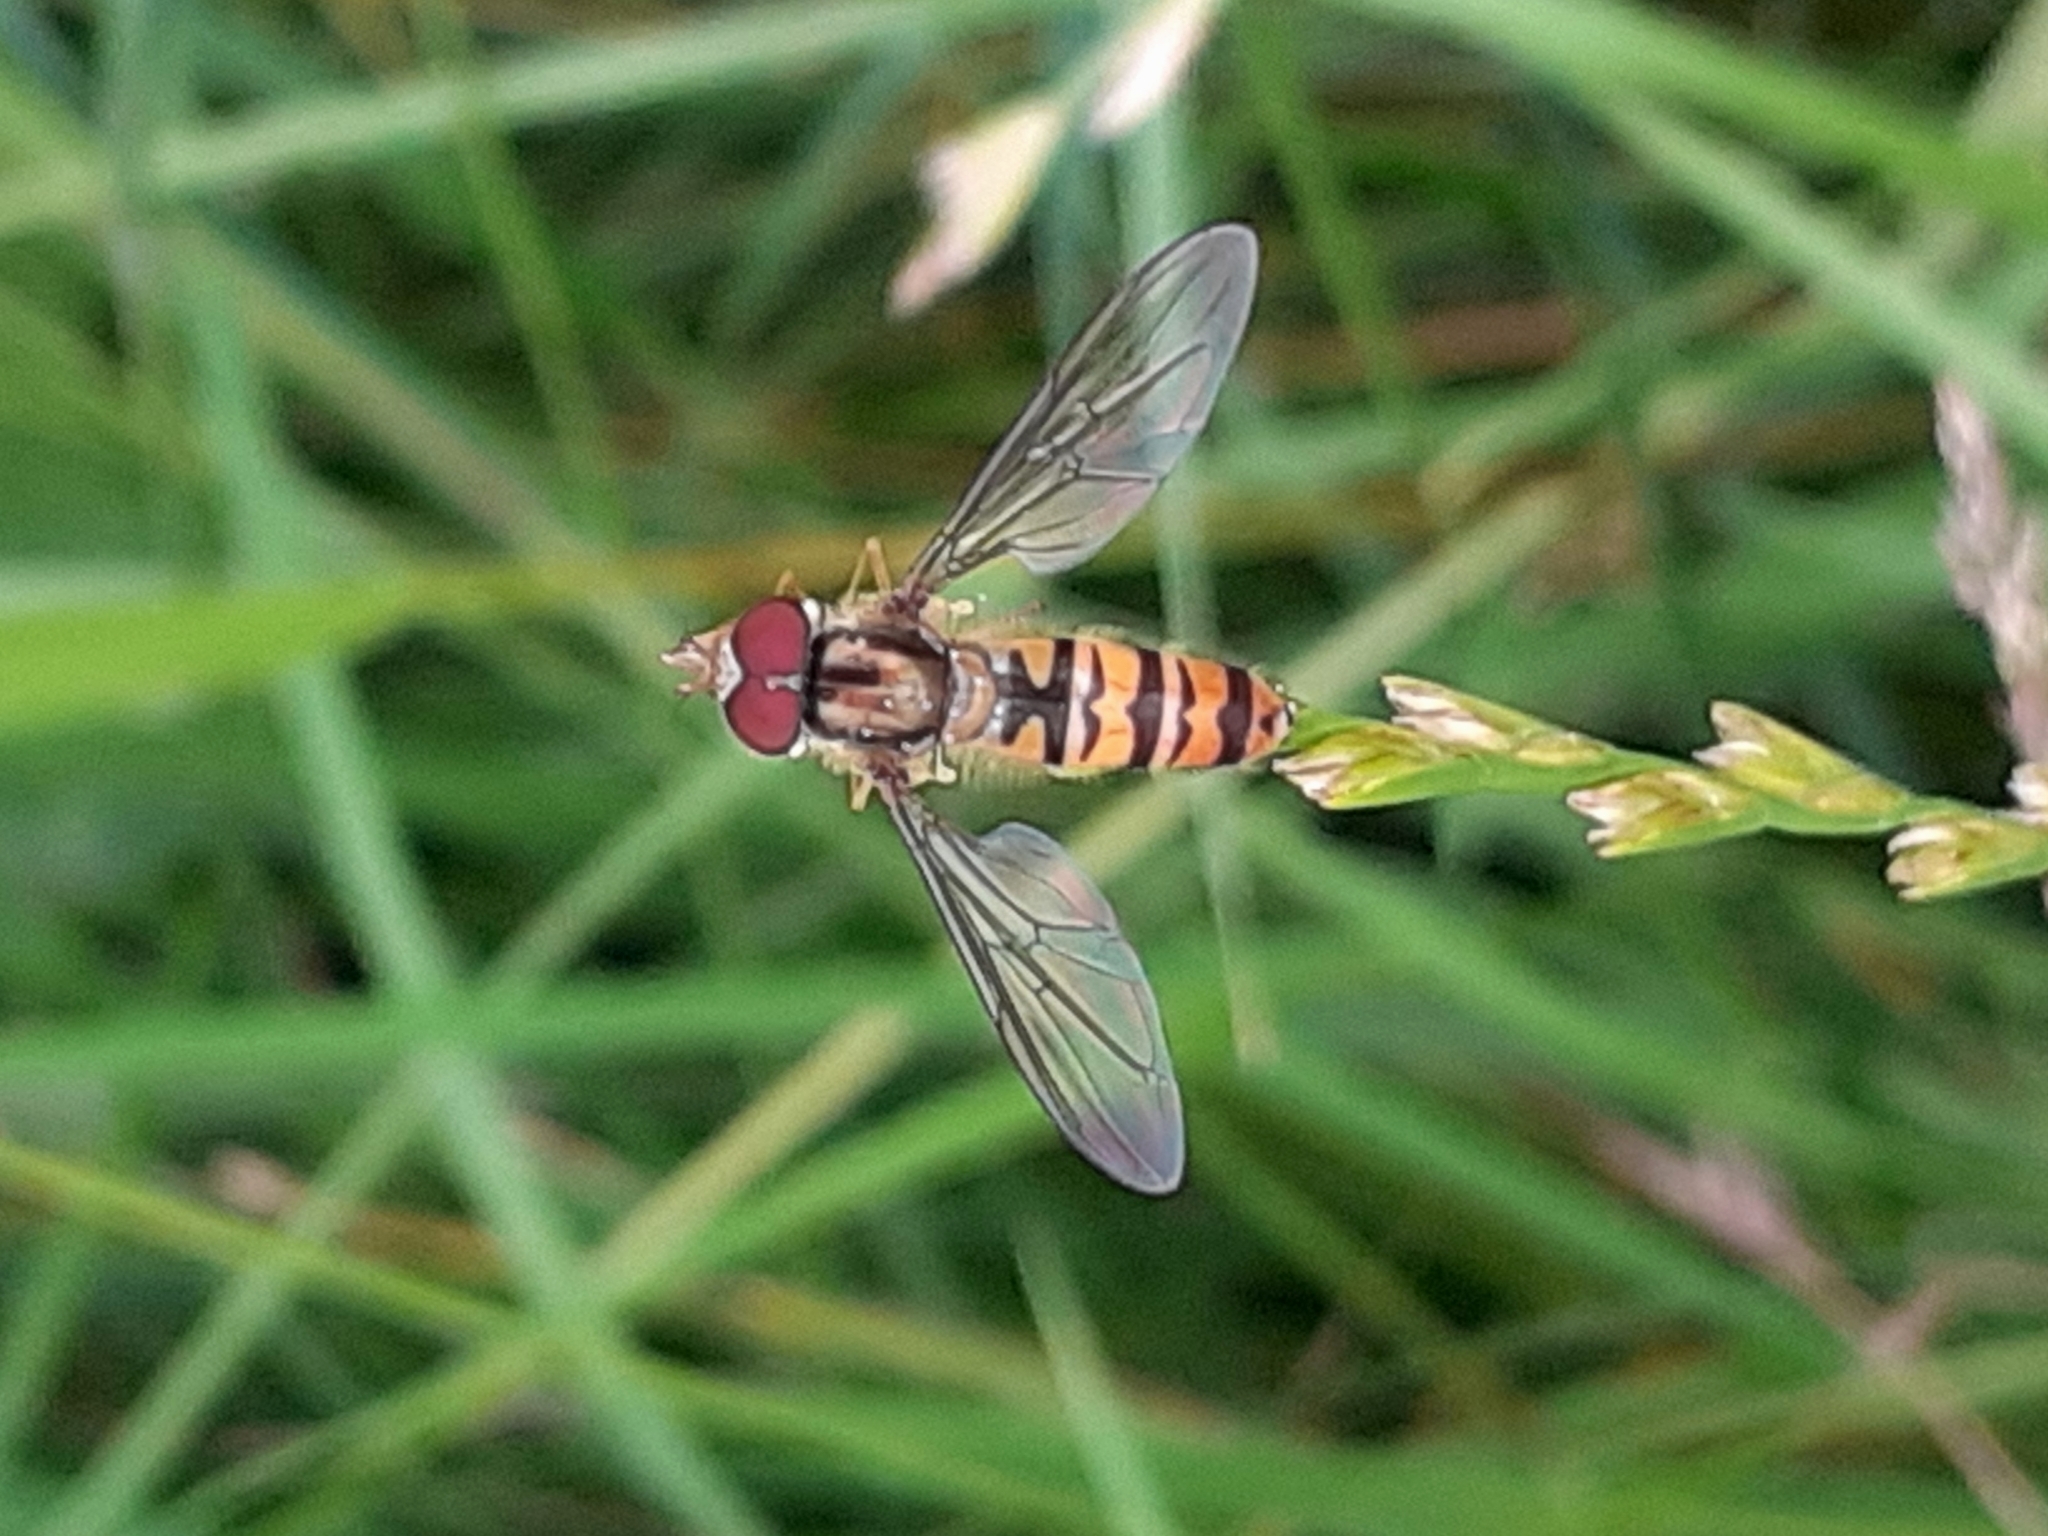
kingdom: Animalia
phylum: Arthropoda
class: Insecta
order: Diptera
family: Syrphidae
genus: Episyrphus
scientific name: Episyrphus balteatus
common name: Marmalade hoverfly
